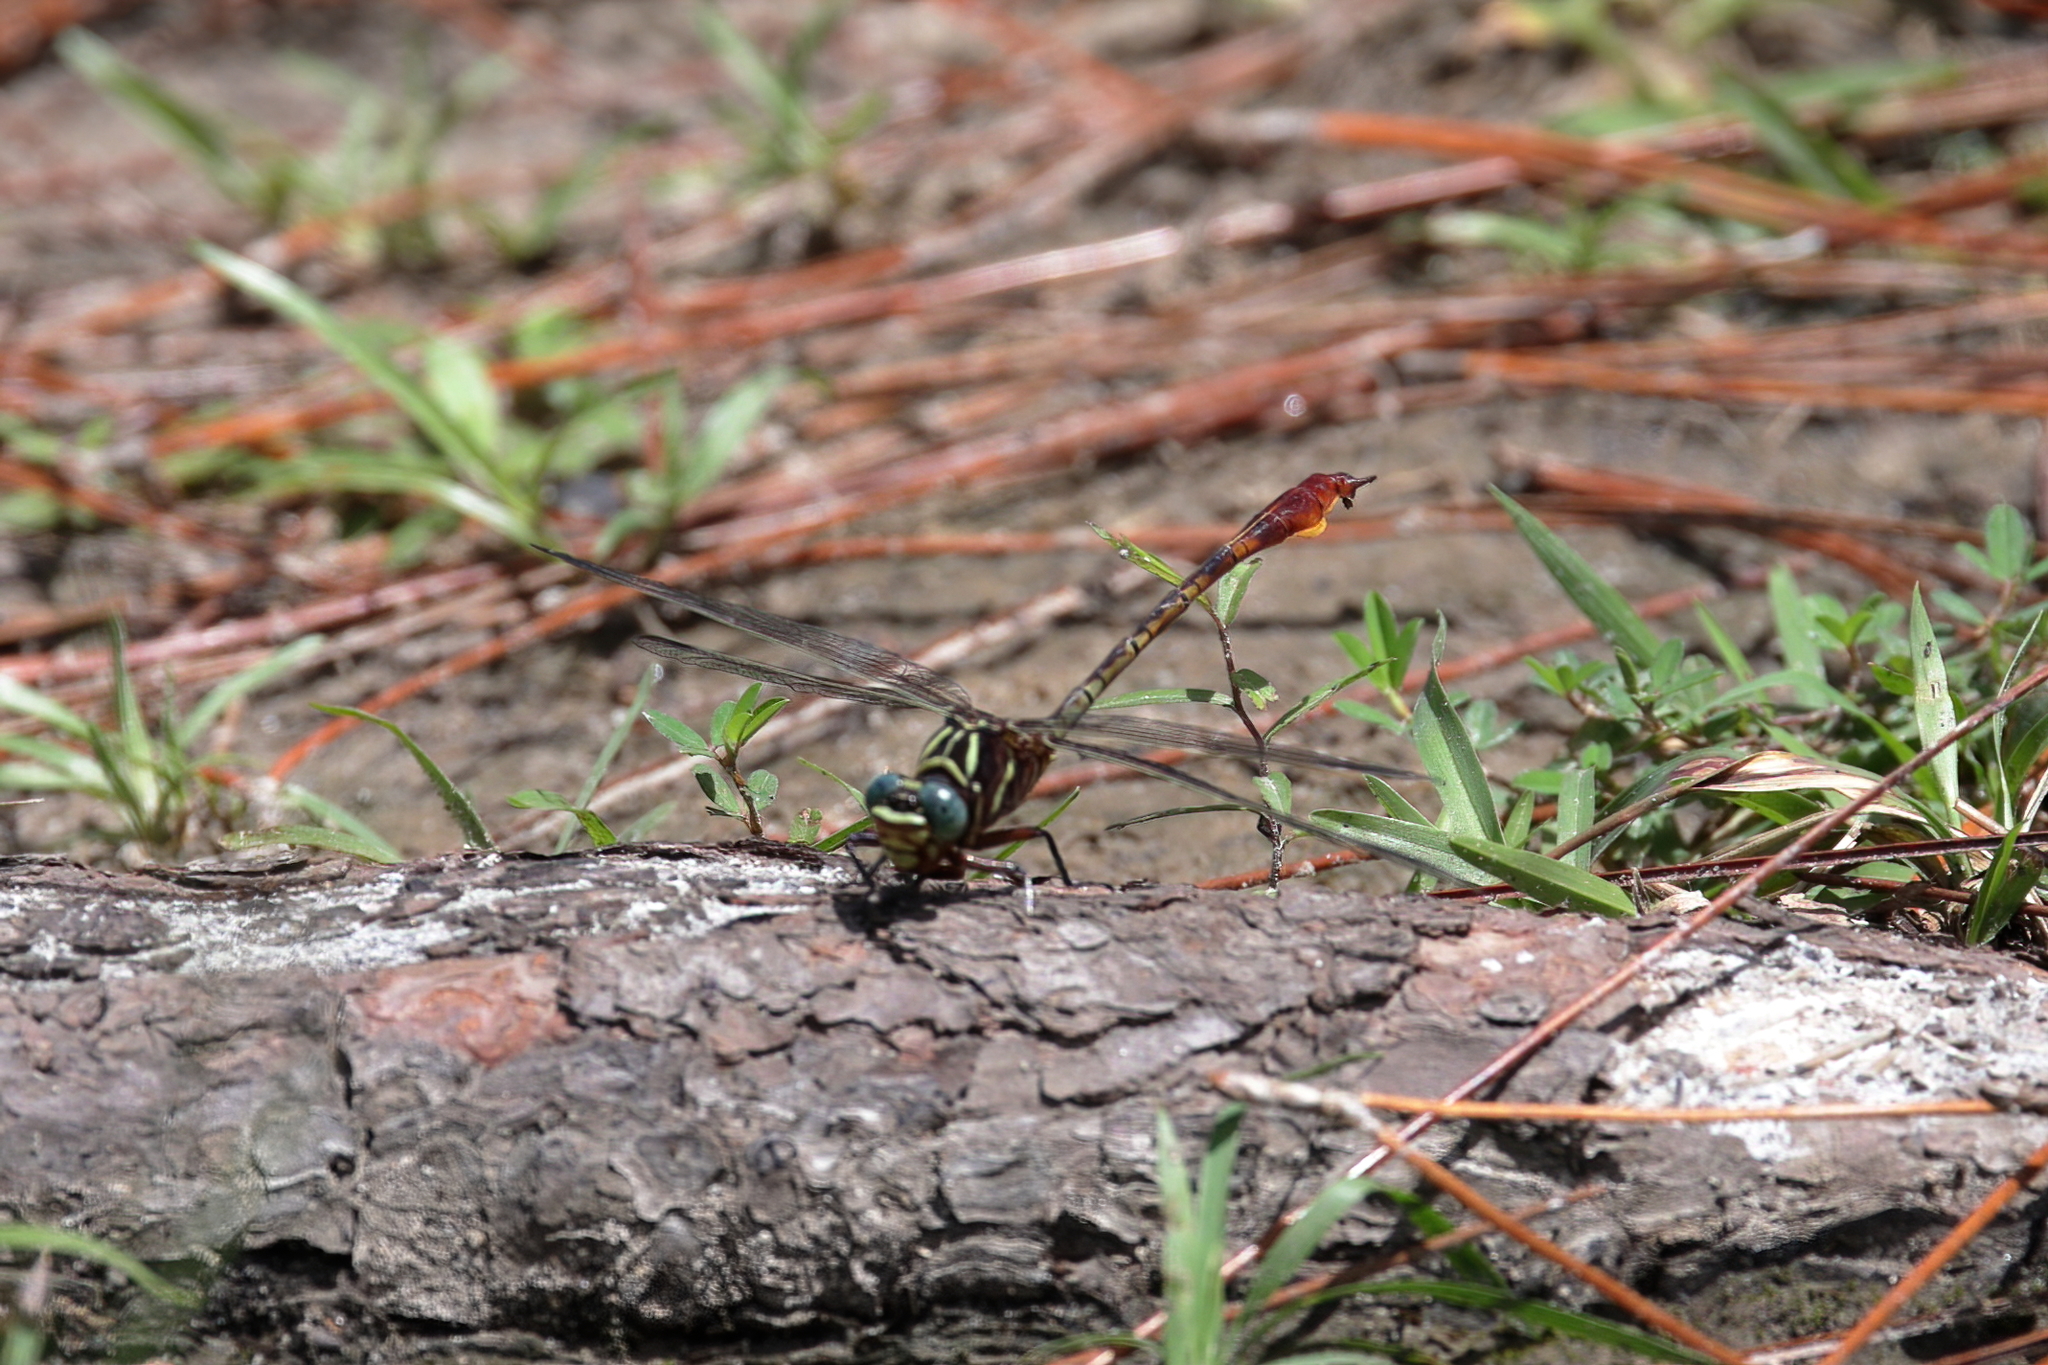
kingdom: Animalia
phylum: Arthropoda
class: Insecta
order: Odonata
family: Gomphidae
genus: Aphylla
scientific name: Aphylla williamsoni
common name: Two-striped forceptail
